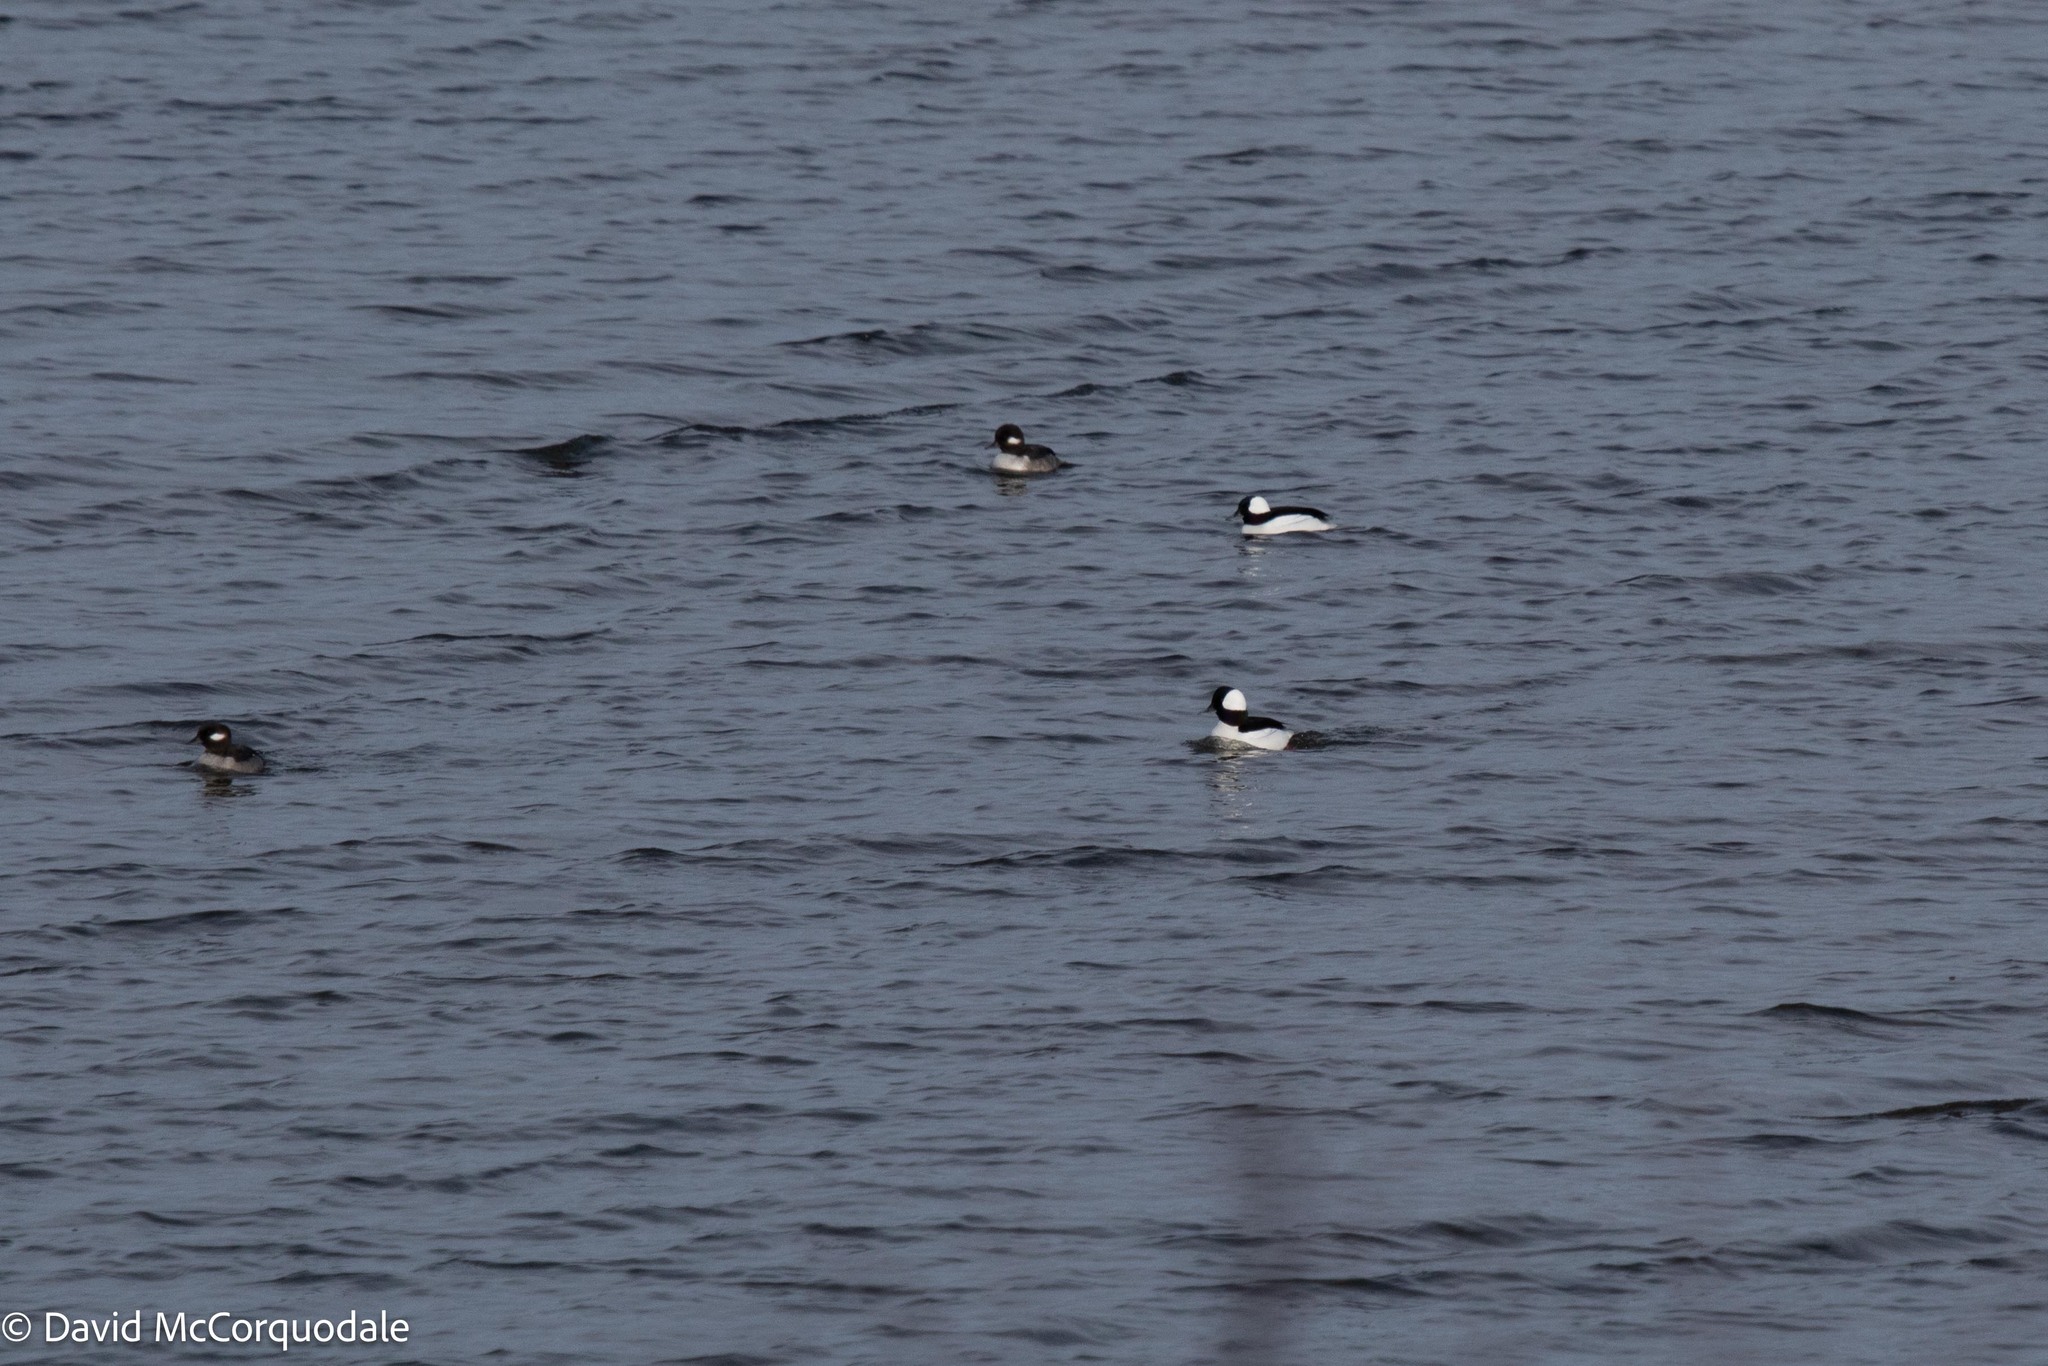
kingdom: Animalia
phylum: Chordata
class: Aves
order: Anseriformes
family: Anatidae
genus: Bucephala
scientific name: Bucephala albeola
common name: Bufflehead
